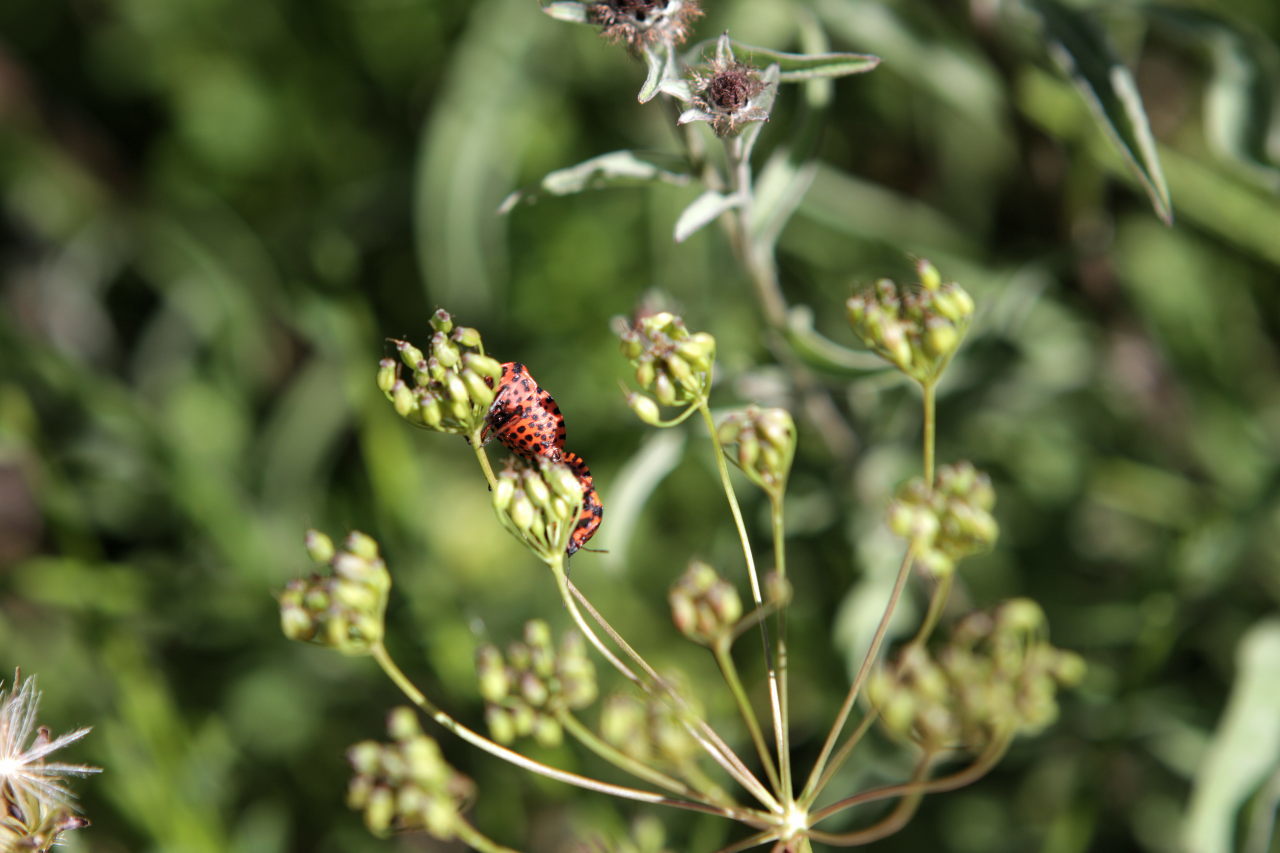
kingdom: Animalia
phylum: Arthropoda
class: Insecta
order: Hemiptera
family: Pentatomidae
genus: Graphosoma
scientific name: Graphosoma italicum
